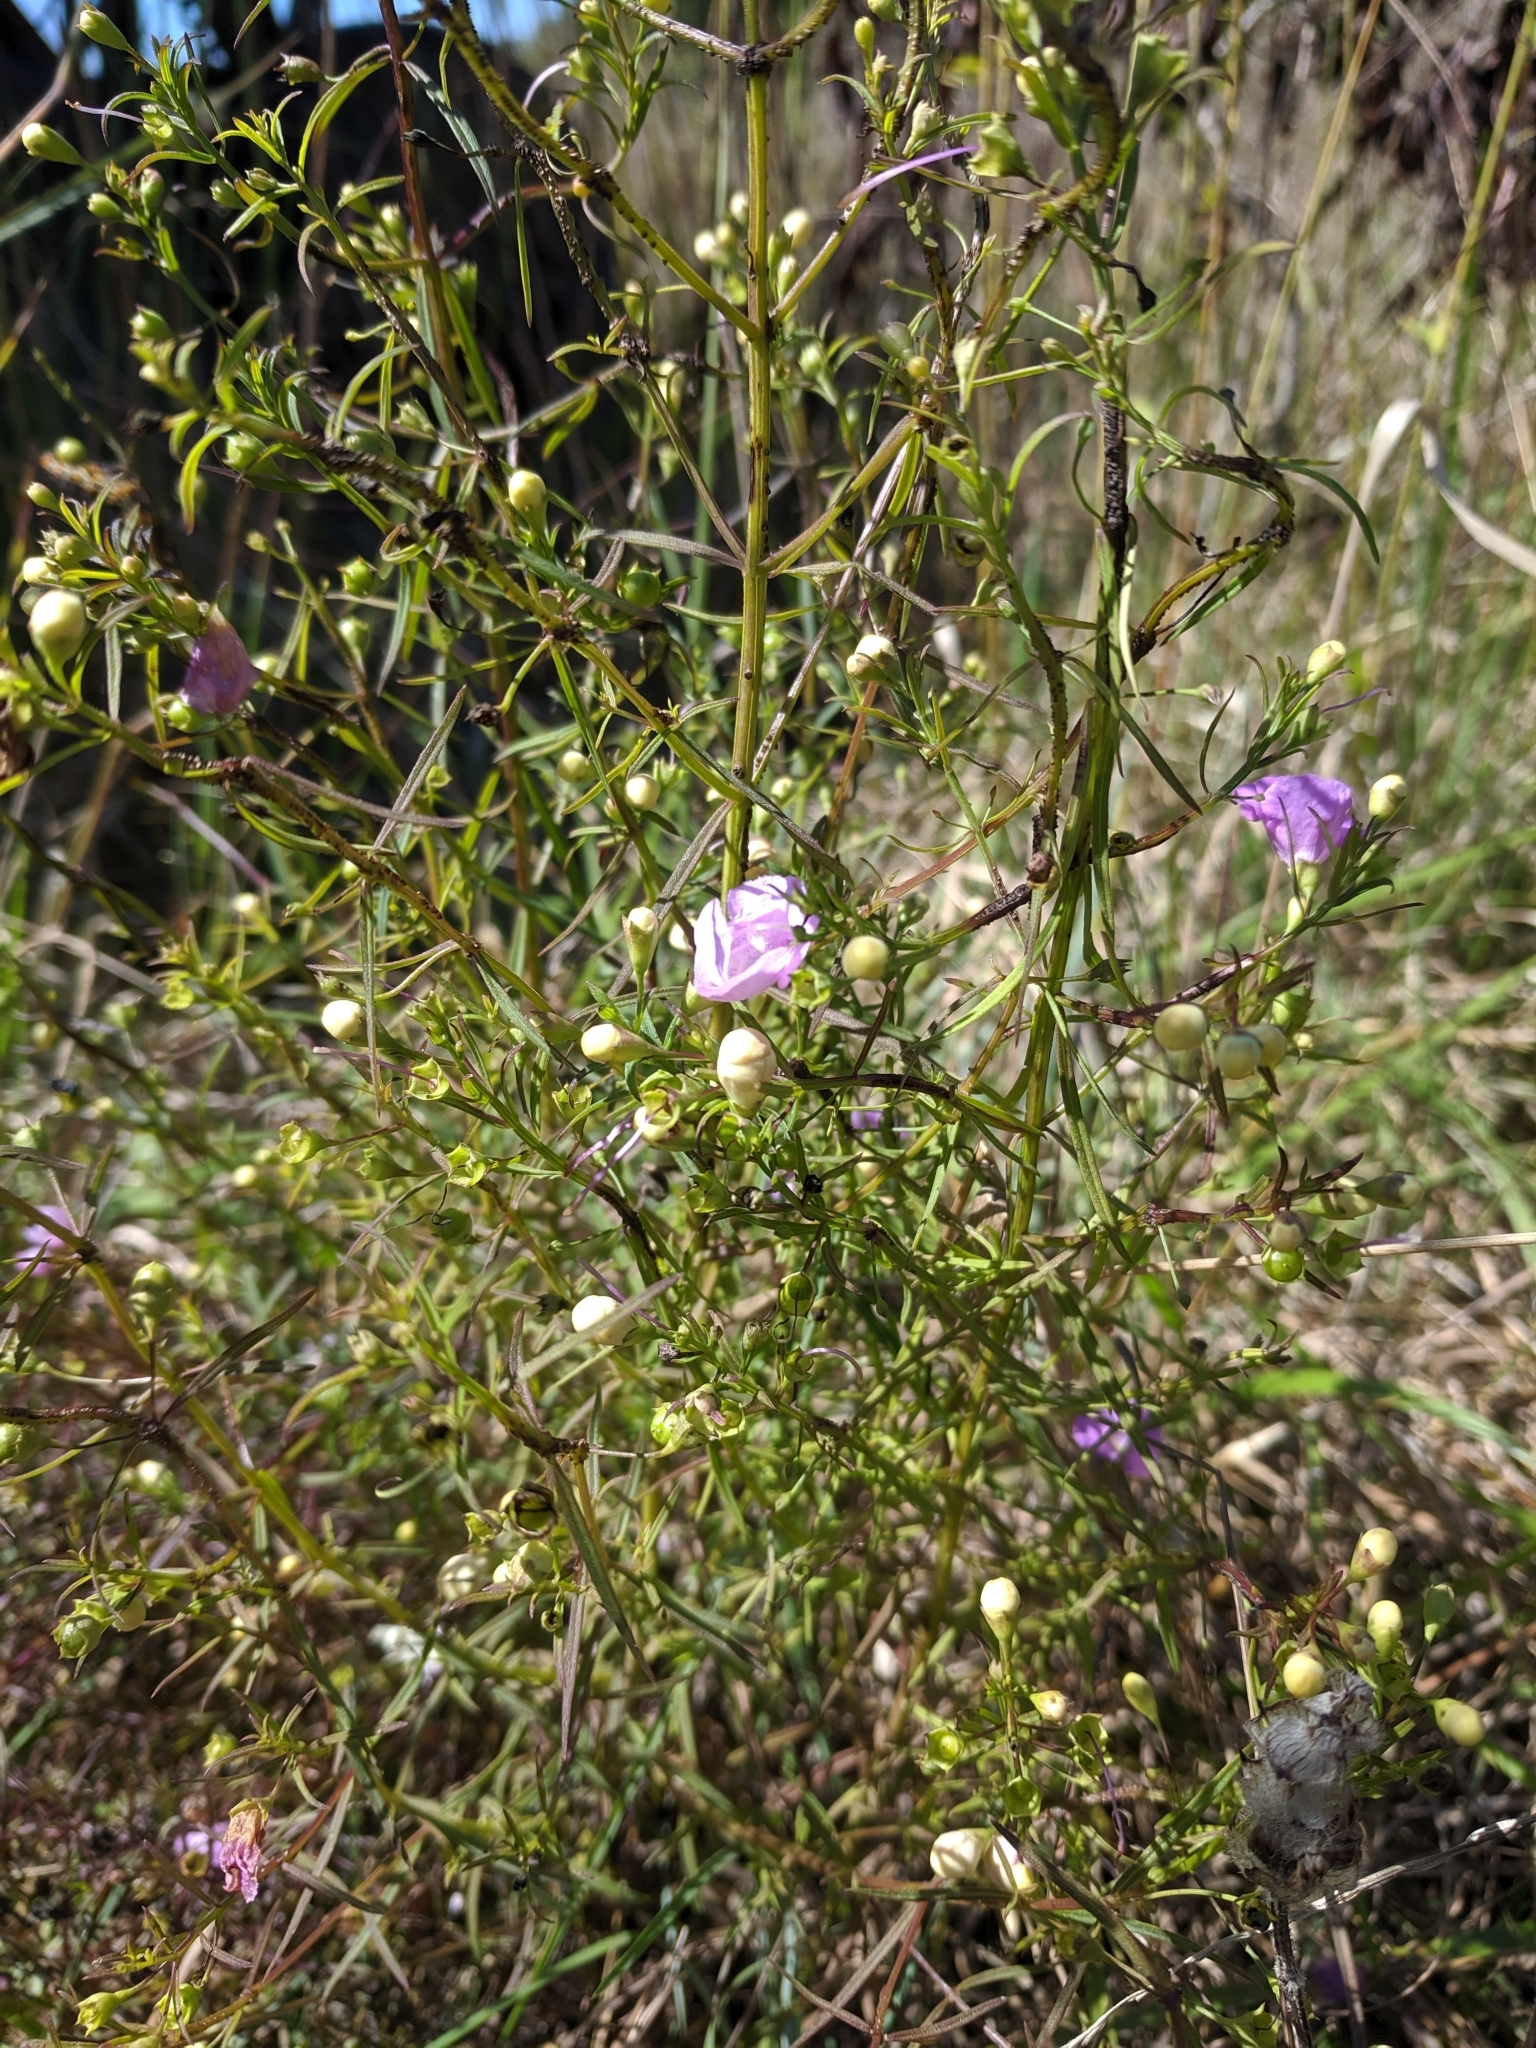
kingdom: Plantae
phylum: Tracheophyta
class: Magnoliopsida
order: Lamiales
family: Orobanchaceae
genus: Agalinis
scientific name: Agalinis tenuifolia
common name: Slender agalinis
